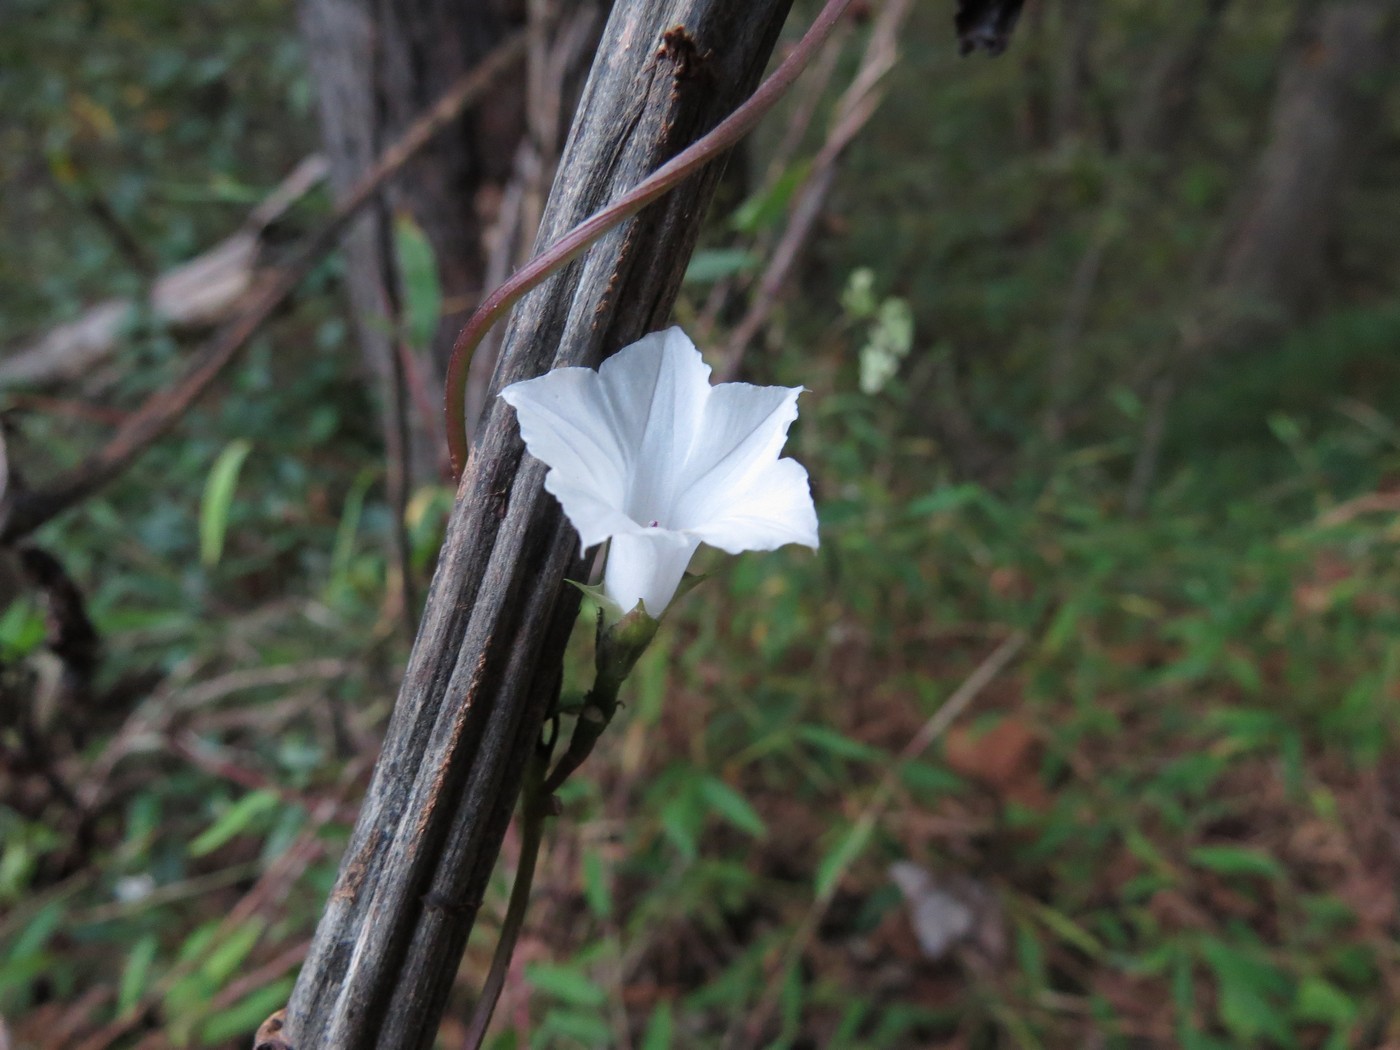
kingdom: Plantae
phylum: Tracheophyta
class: Magnoliopsida
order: Solanales
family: Convolvulaceae
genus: Ipomoea
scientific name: Ipomoea lacunosa
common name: White morning-glory
